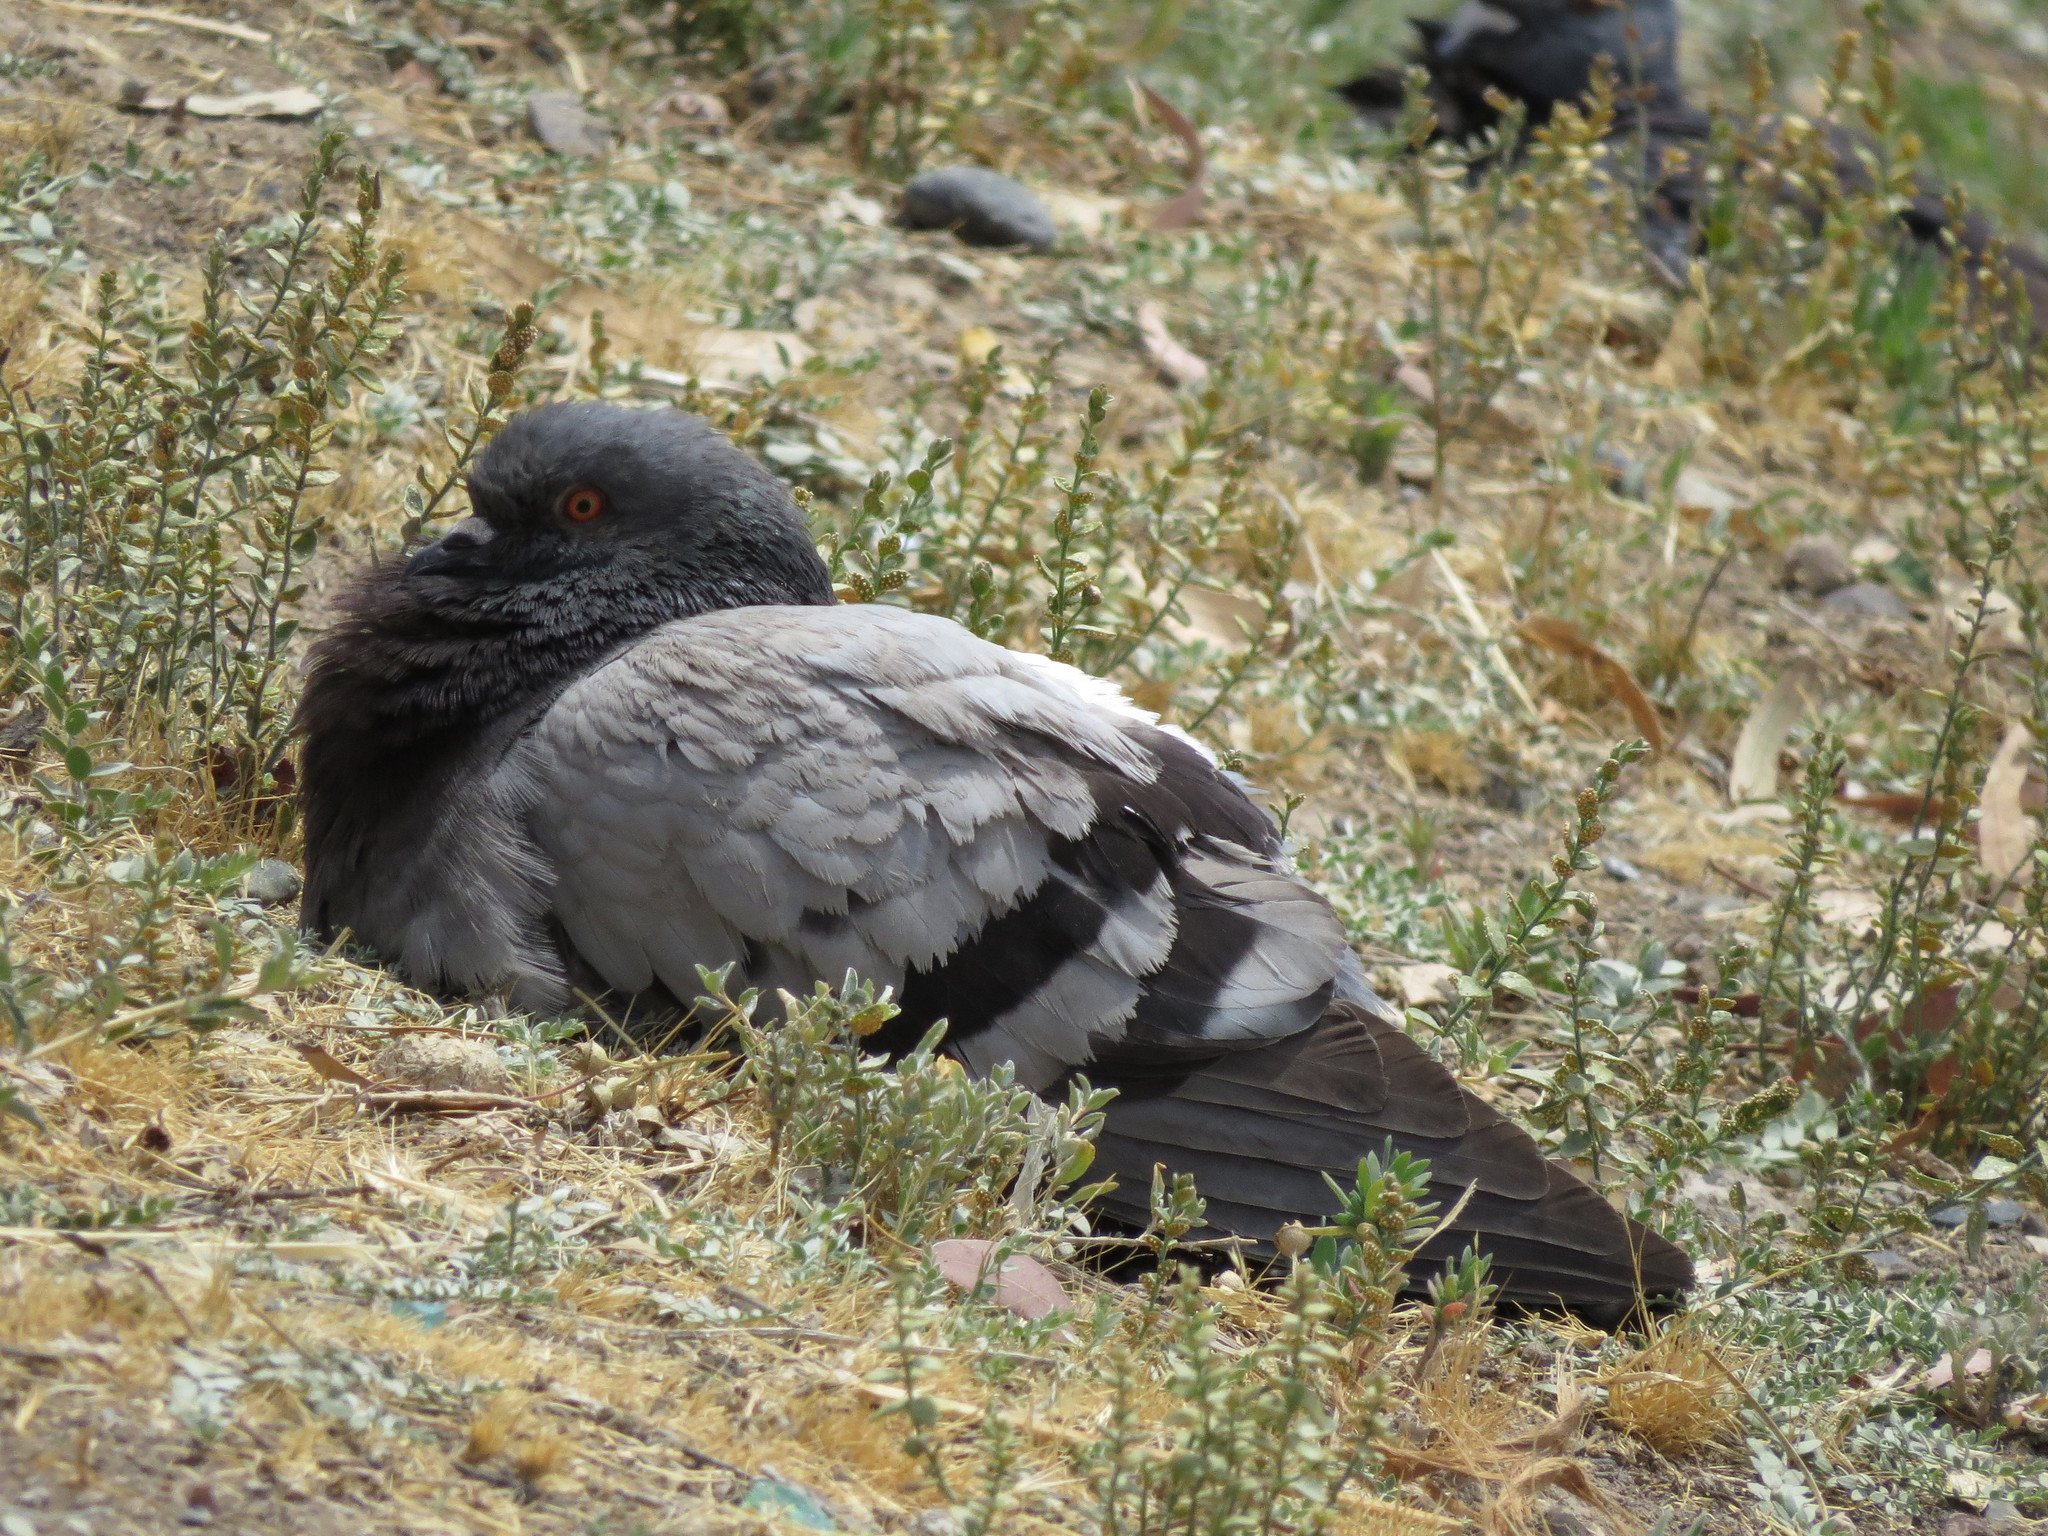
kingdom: Animalia
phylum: Chordata
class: Aves
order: Columbiformes
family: Columbidae
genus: Columba
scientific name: Columba livia
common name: Rock pigeon
